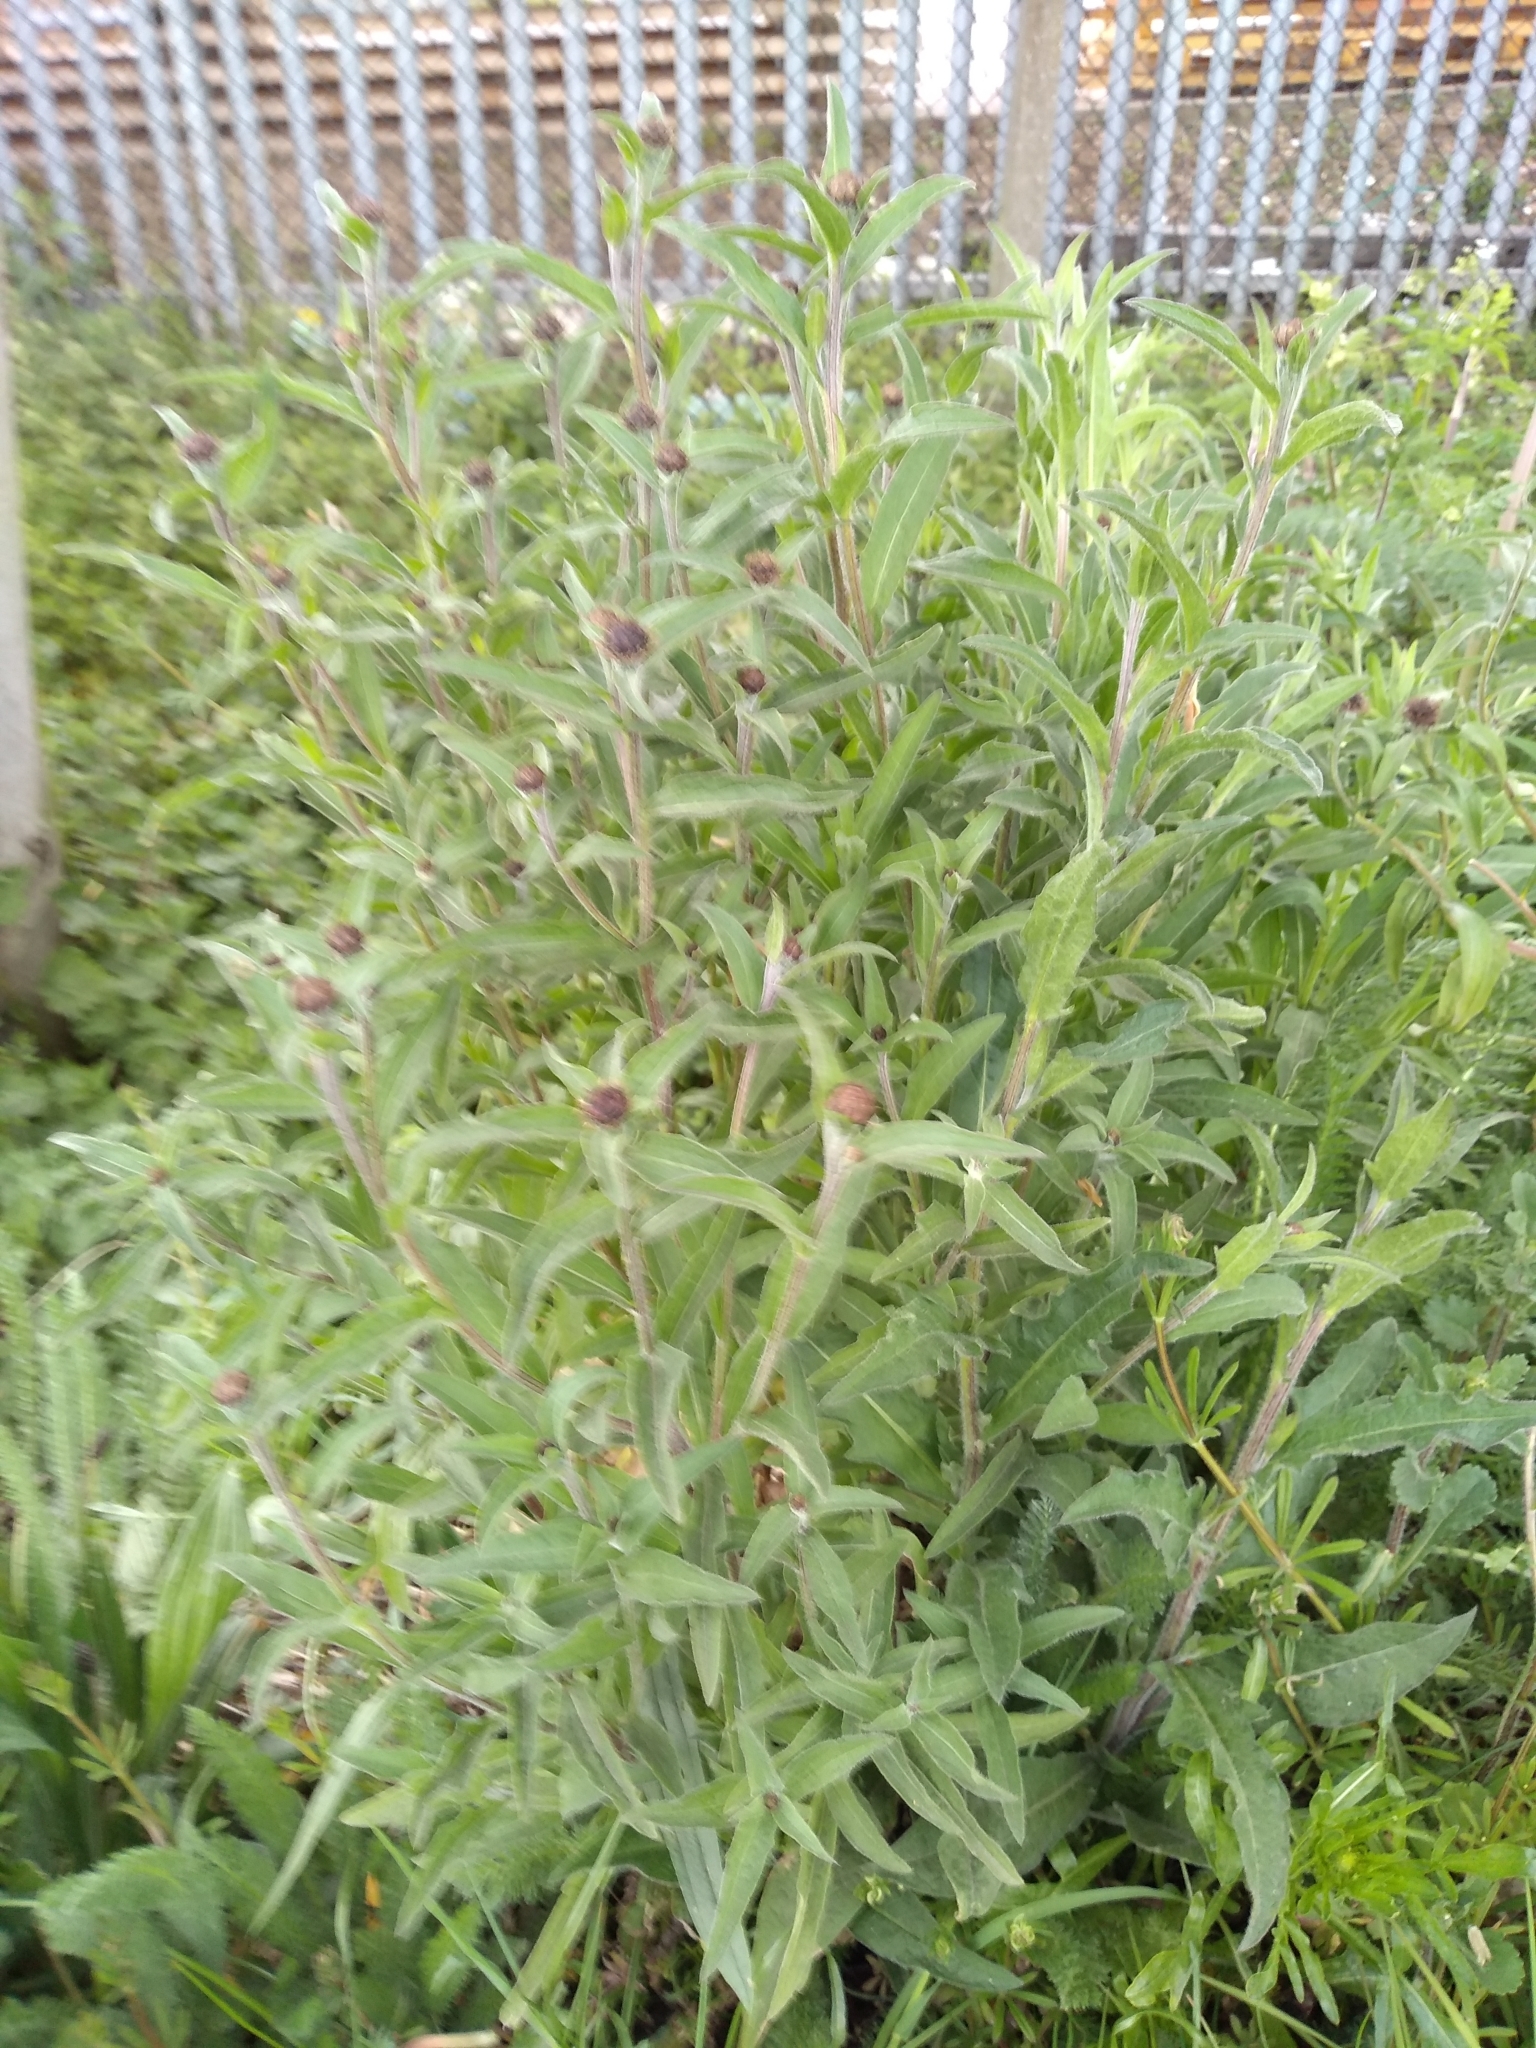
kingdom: Plantae
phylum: Tracheophyta
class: Magnoliopsida
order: Asterales
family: Asteraceae
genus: Centaurea
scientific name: Centaurea nigra
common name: Lesser knapweed
